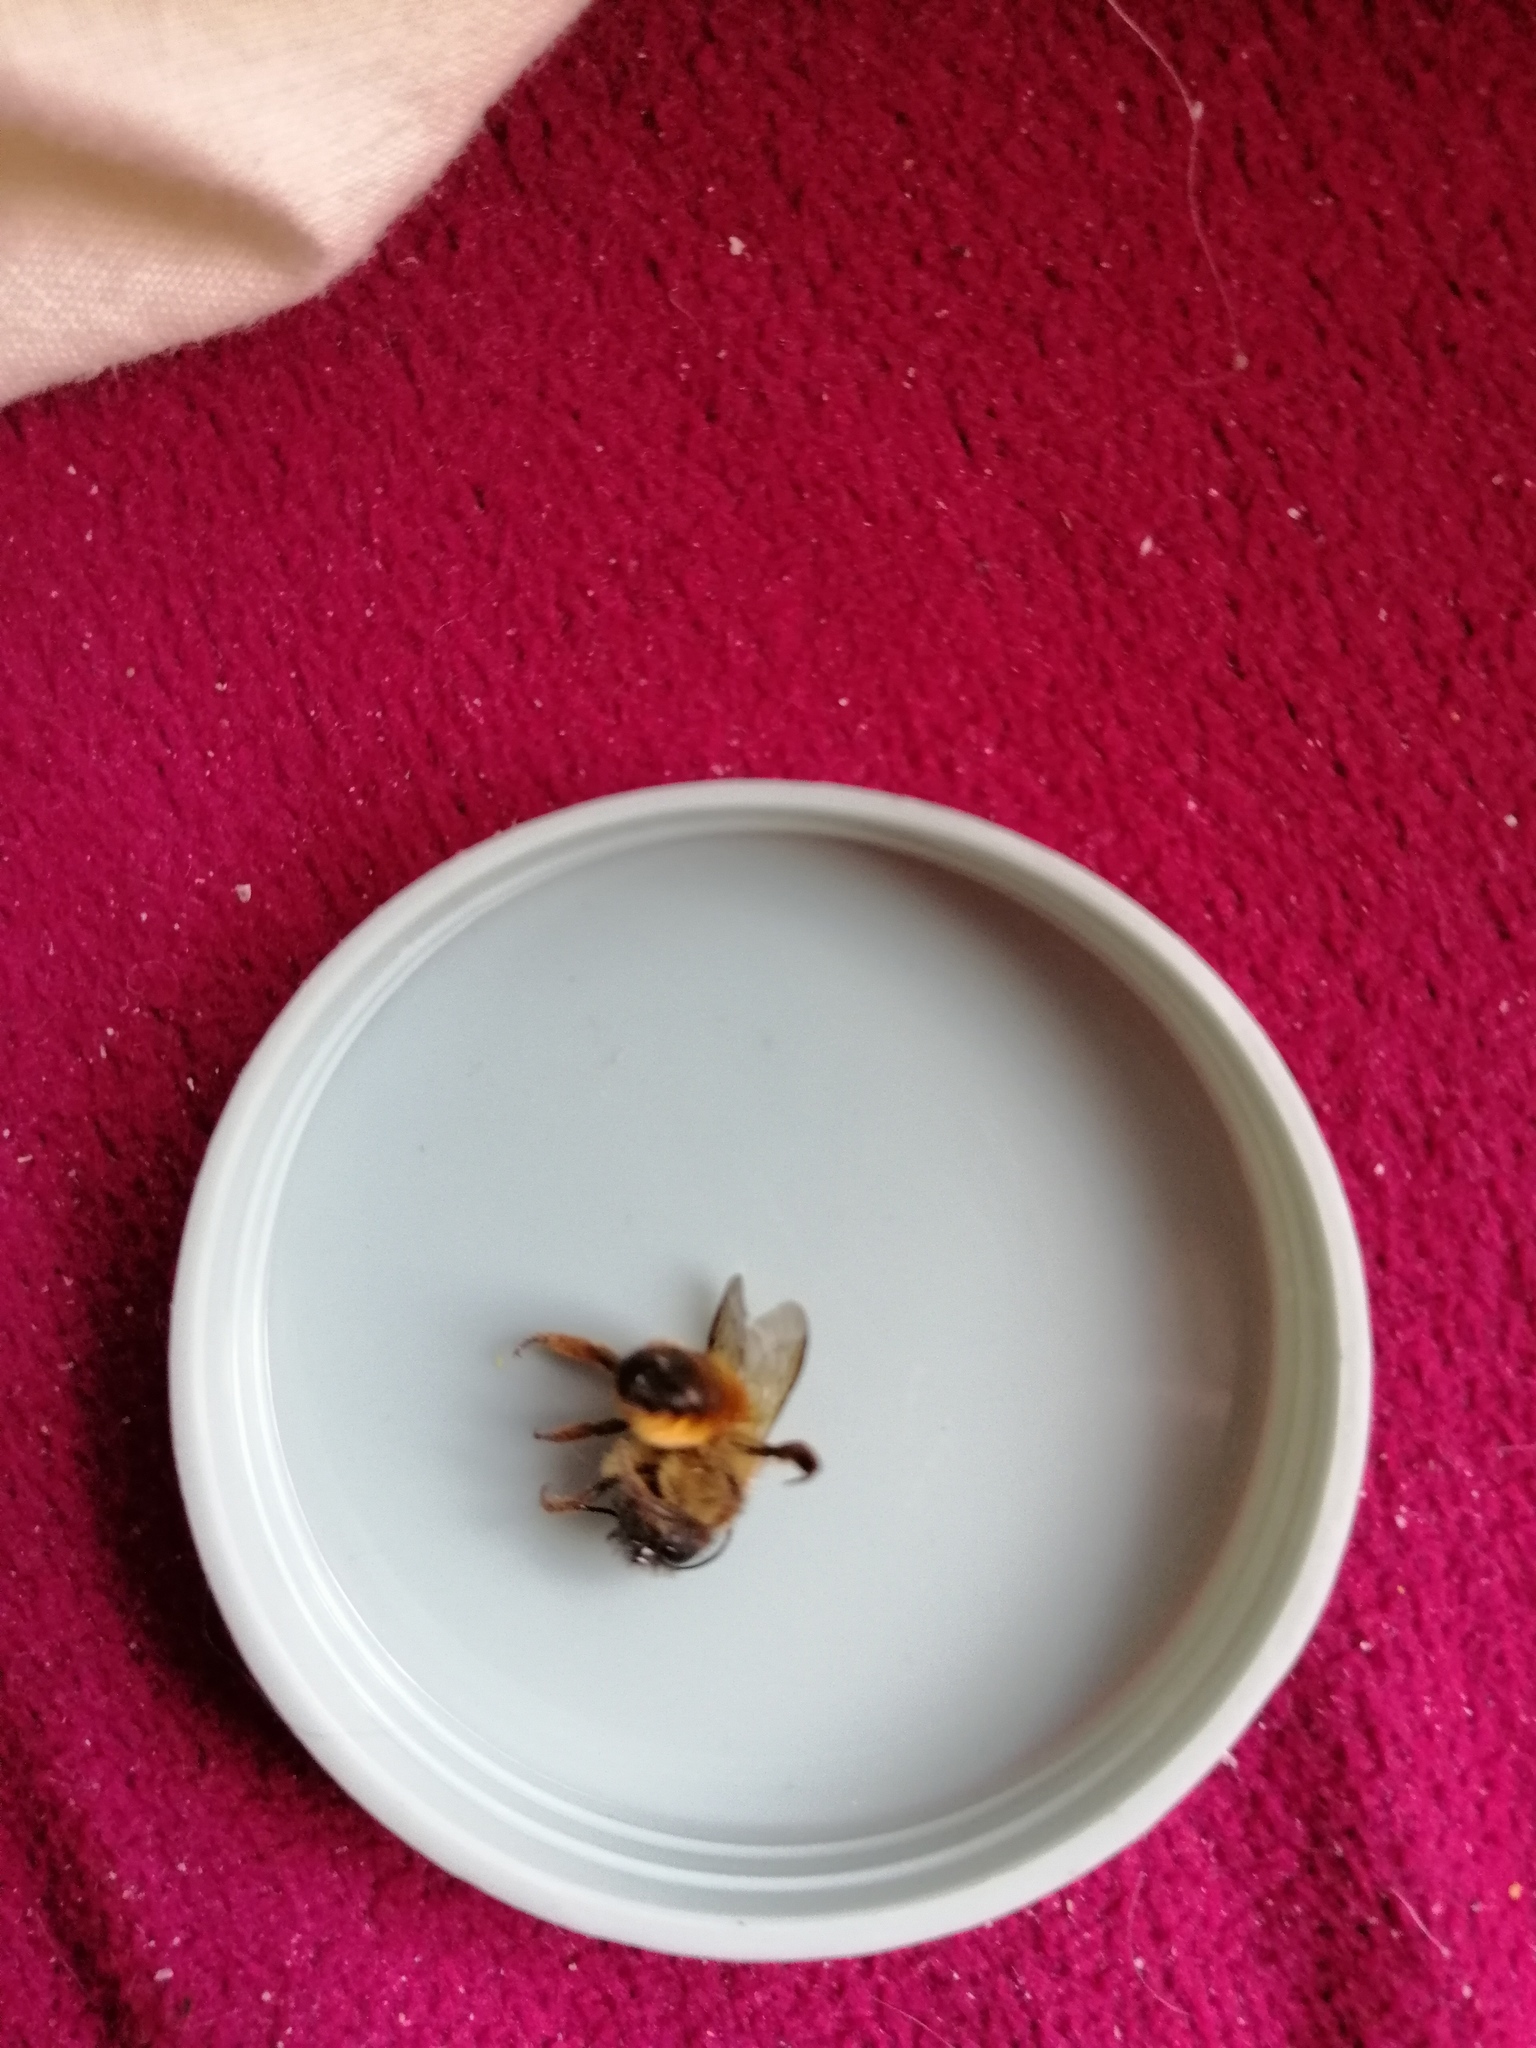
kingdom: Animalia
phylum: Arthropoda
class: Insecta
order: Hymenoptera
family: Megachilidae
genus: Osmia
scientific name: Osmia bicornis
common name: Red mason bee
